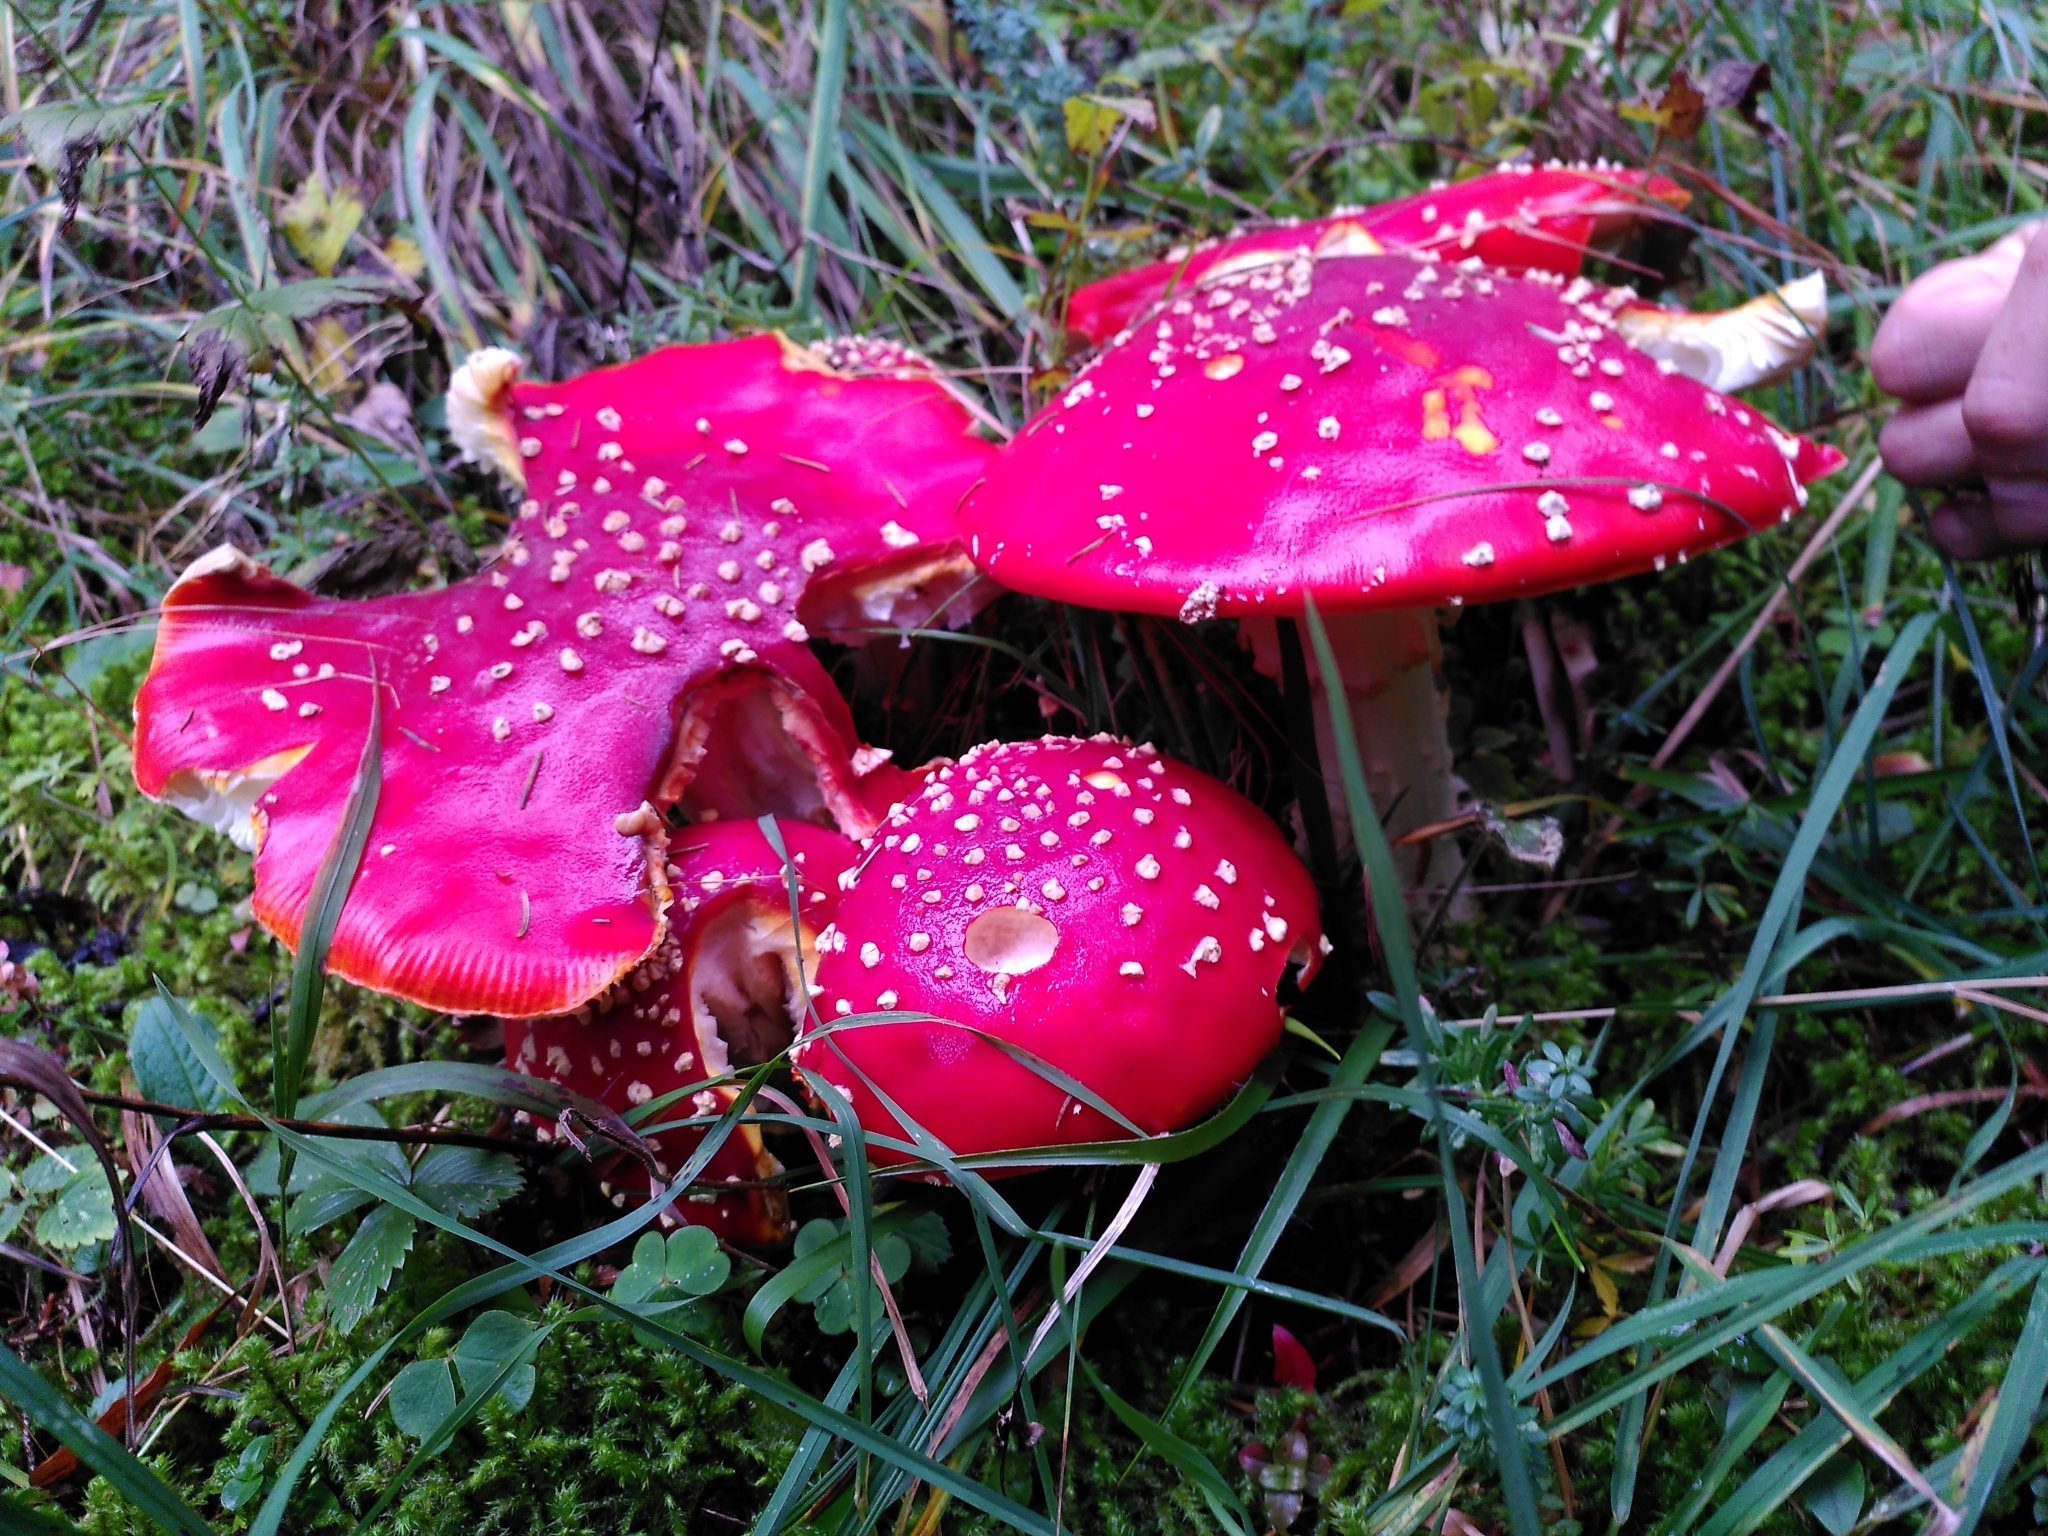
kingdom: Fungi
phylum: Basidiomycota
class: Agaricomycetes
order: Agaricales
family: Amanitaceae
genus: Amanita
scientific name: Amanita muscaria
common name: Fly agaric
